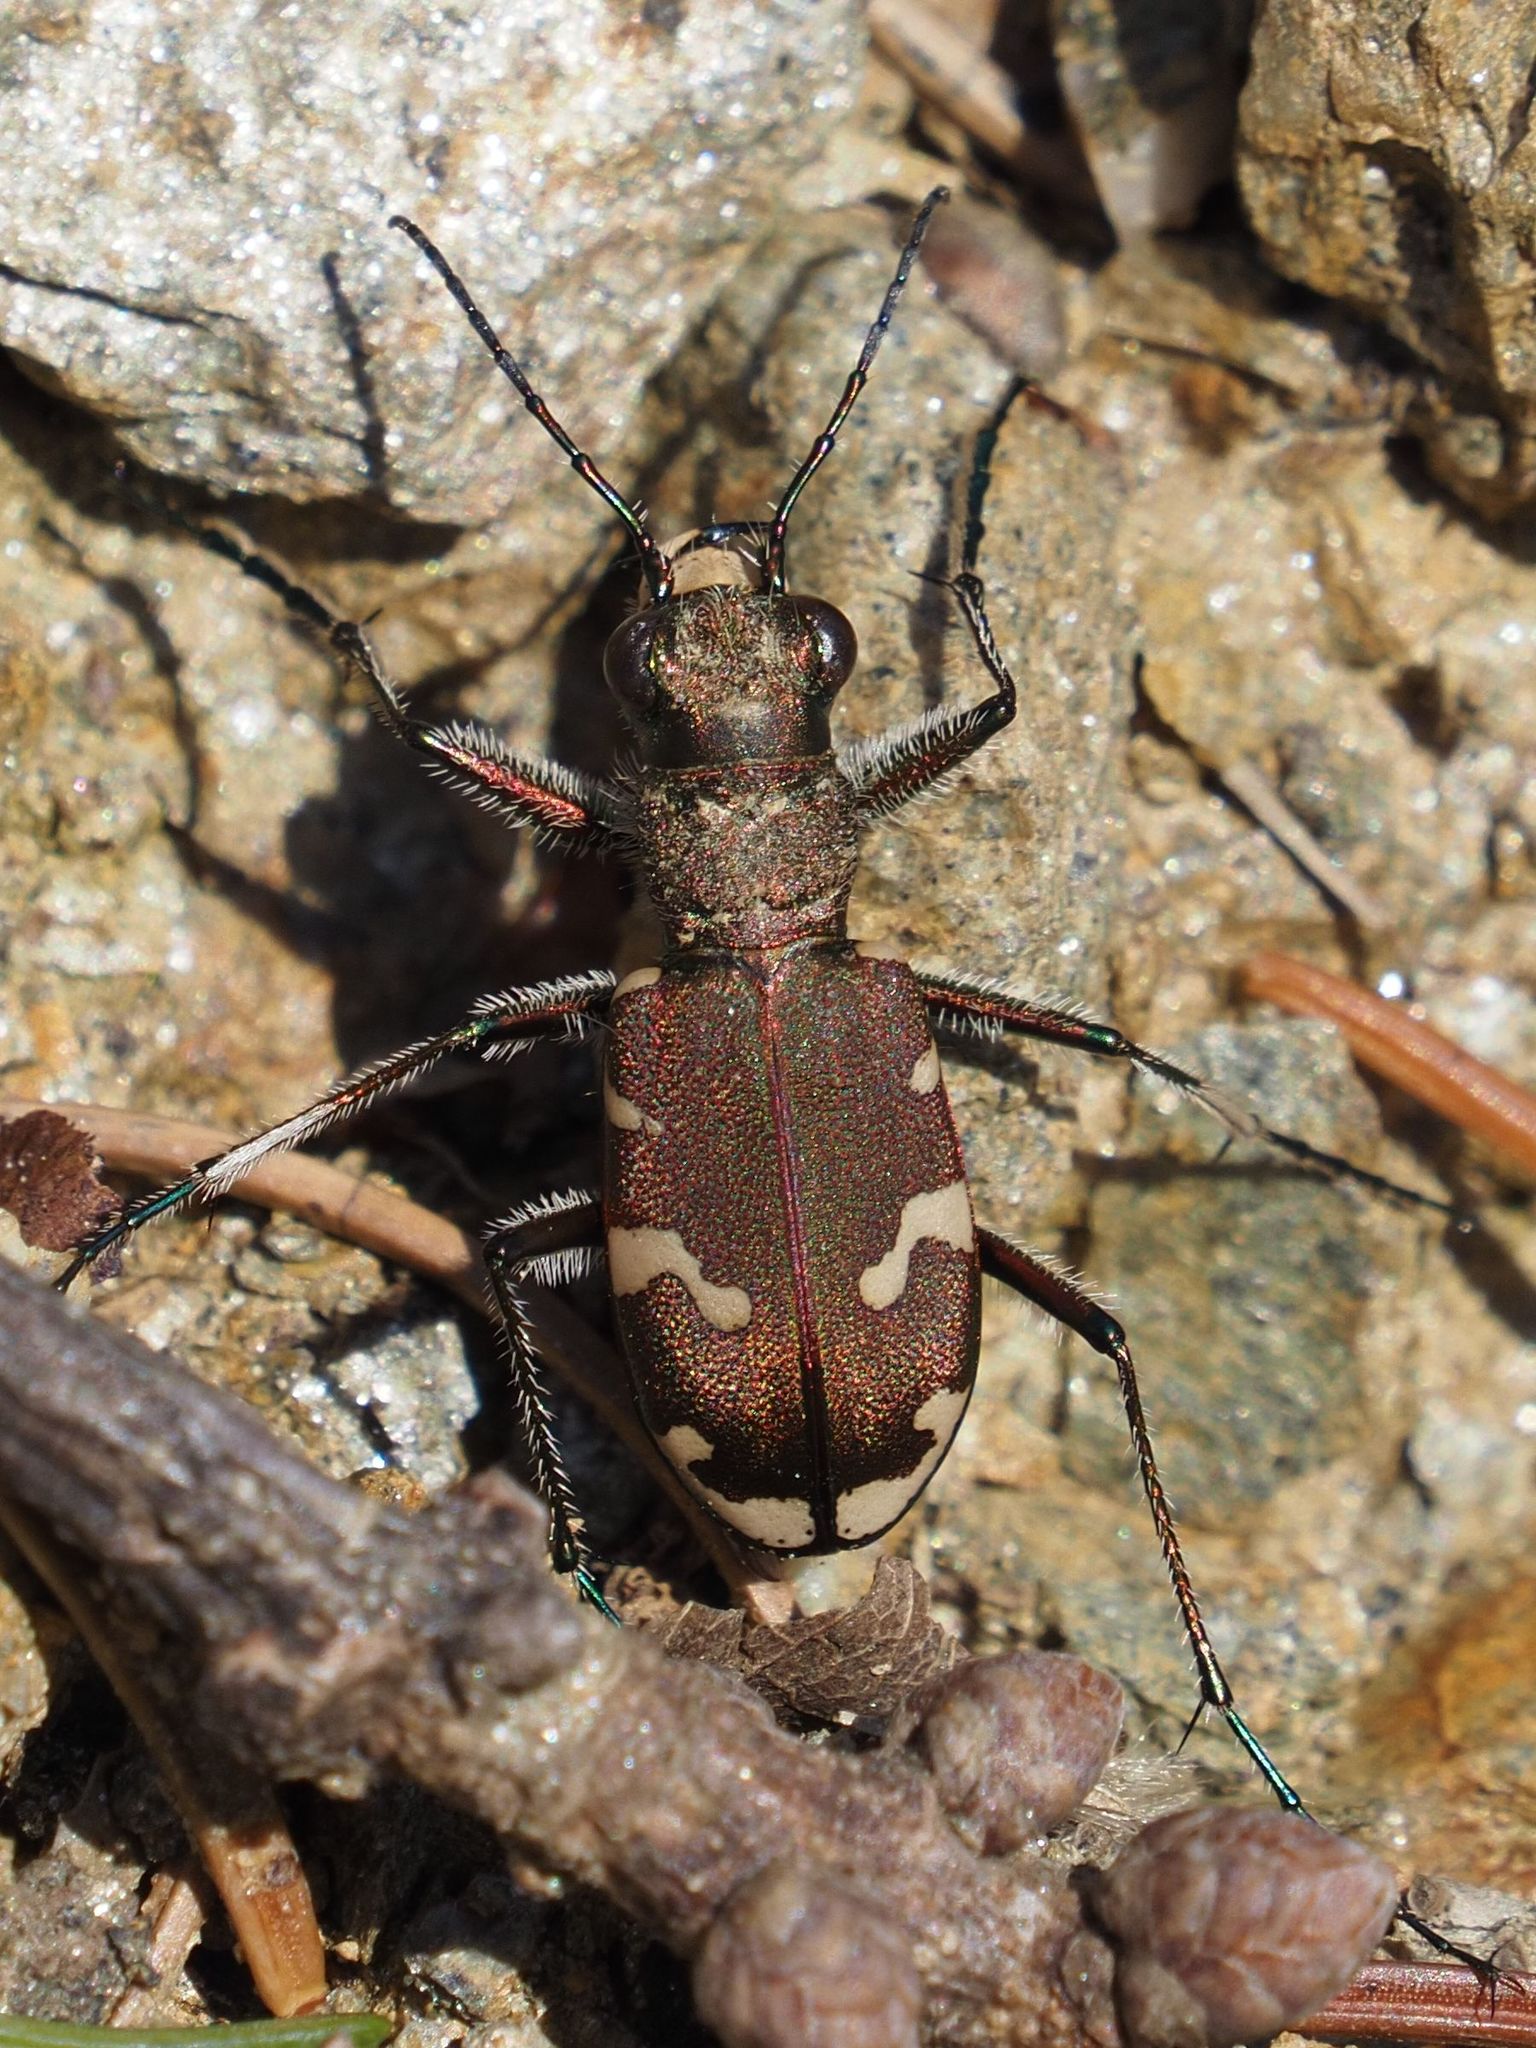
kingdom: Animalia
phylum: Arthropoda
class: Insecta
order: Coleoptera
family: Carabidae
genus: Cicindela
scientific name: Cicindela sylvicola
